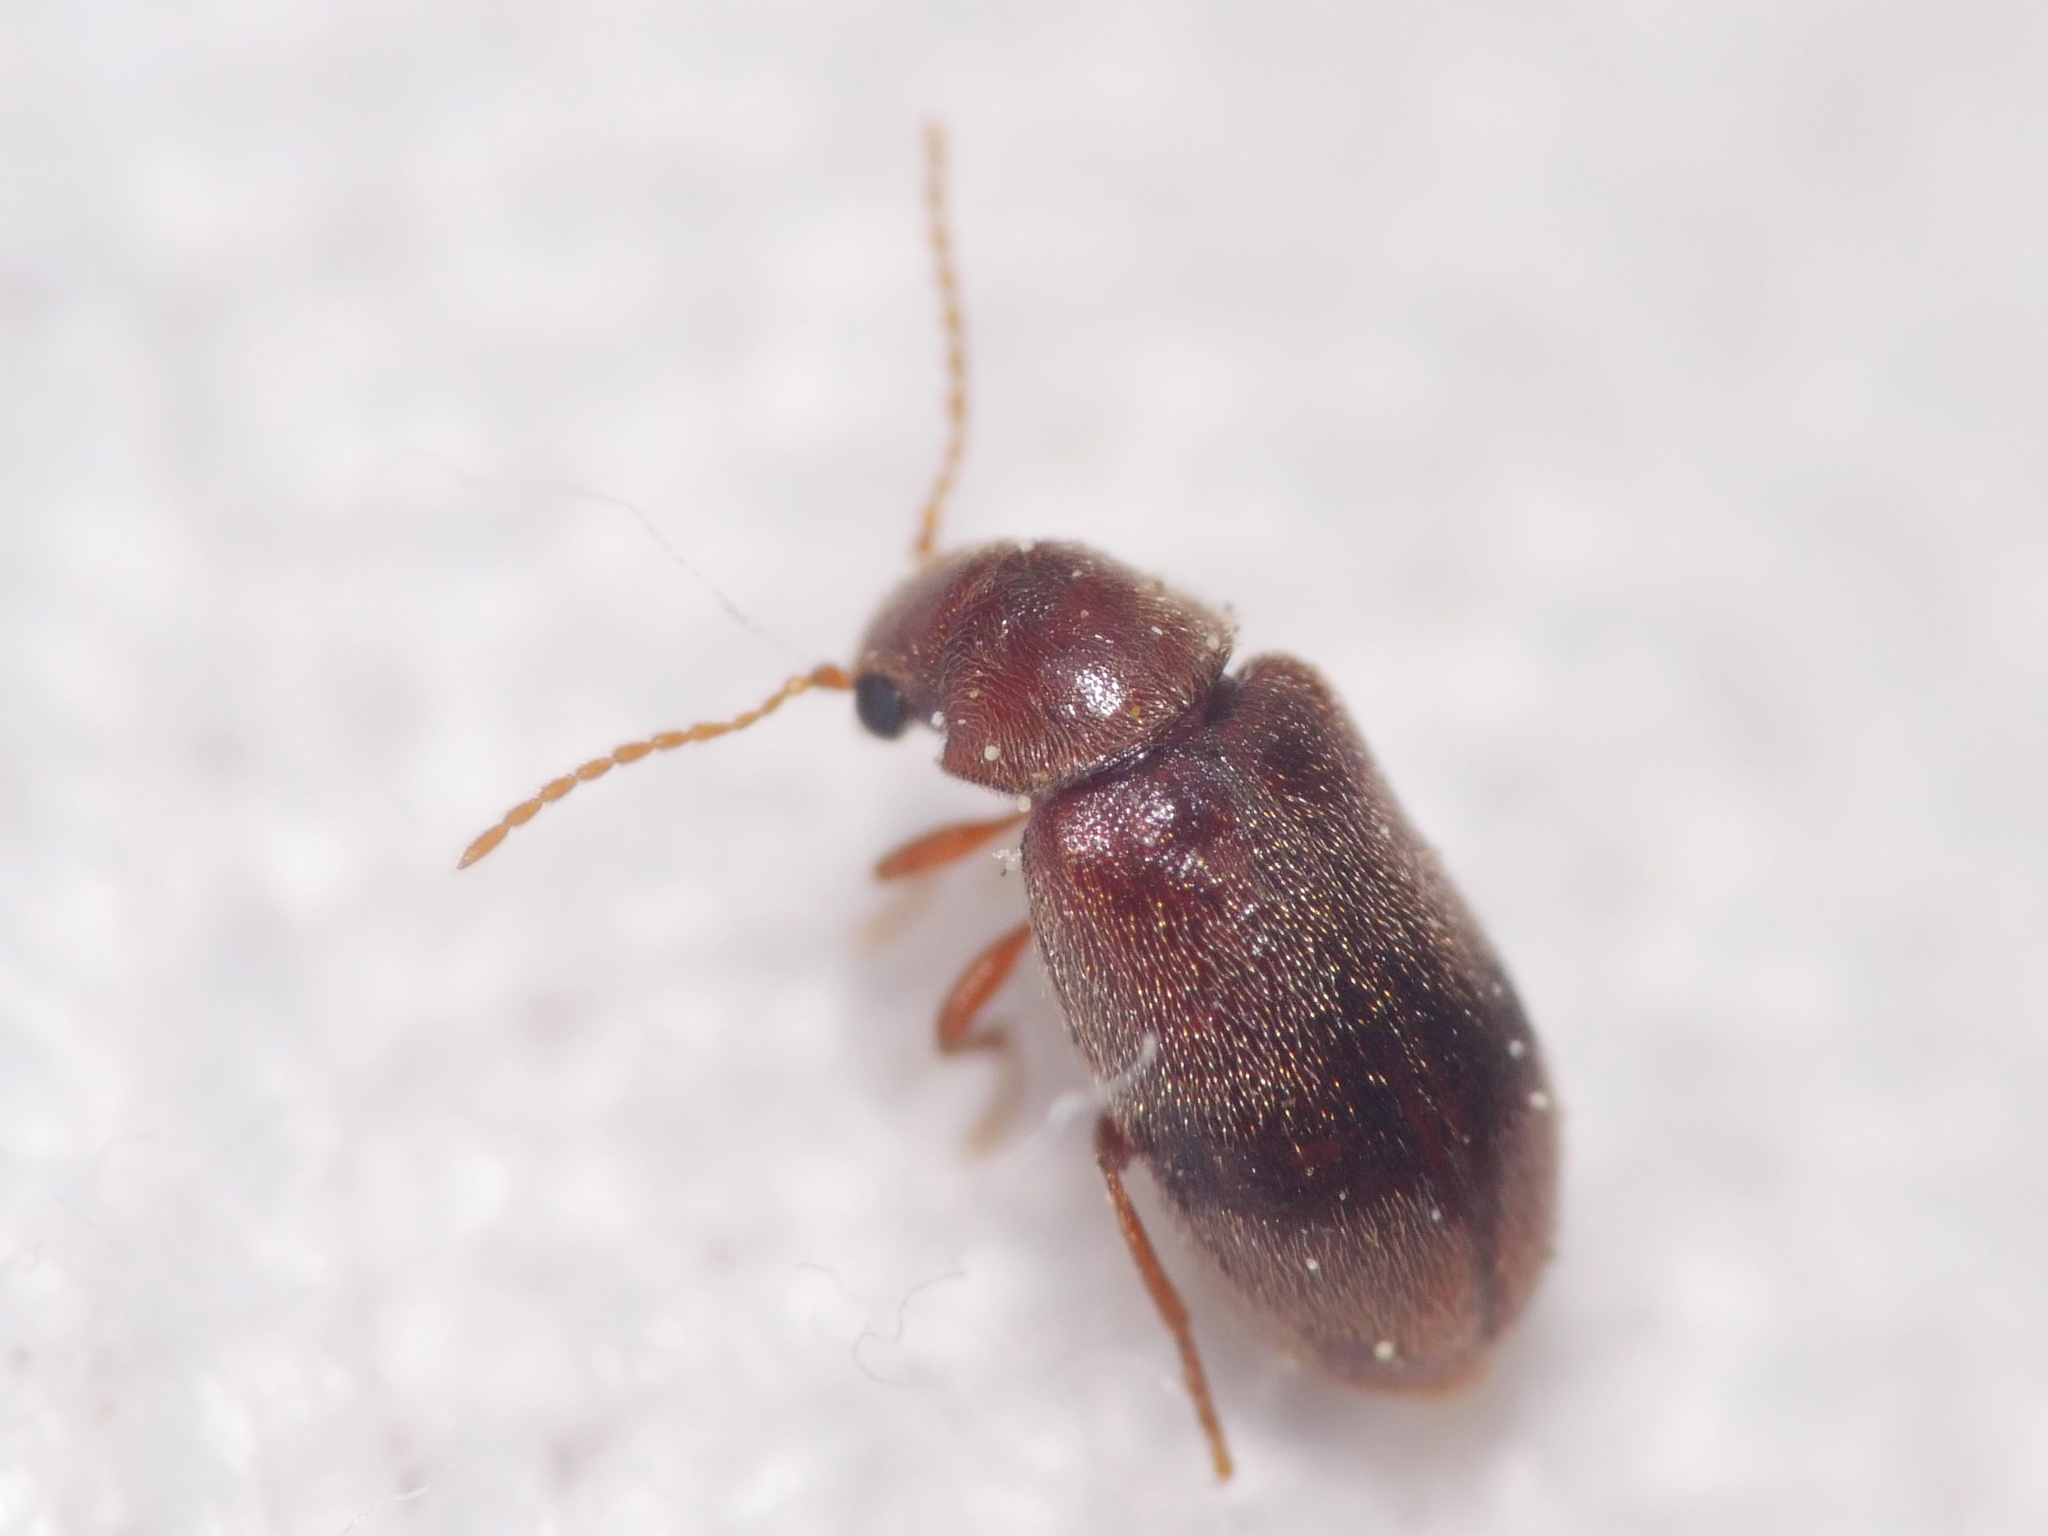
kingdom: Animalia
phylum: Arthropoda
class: Insecta
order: Coleoptera
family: Ptinidae
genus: Ochina
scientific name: Ochina ptinoides
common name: Ivy boring beetle
